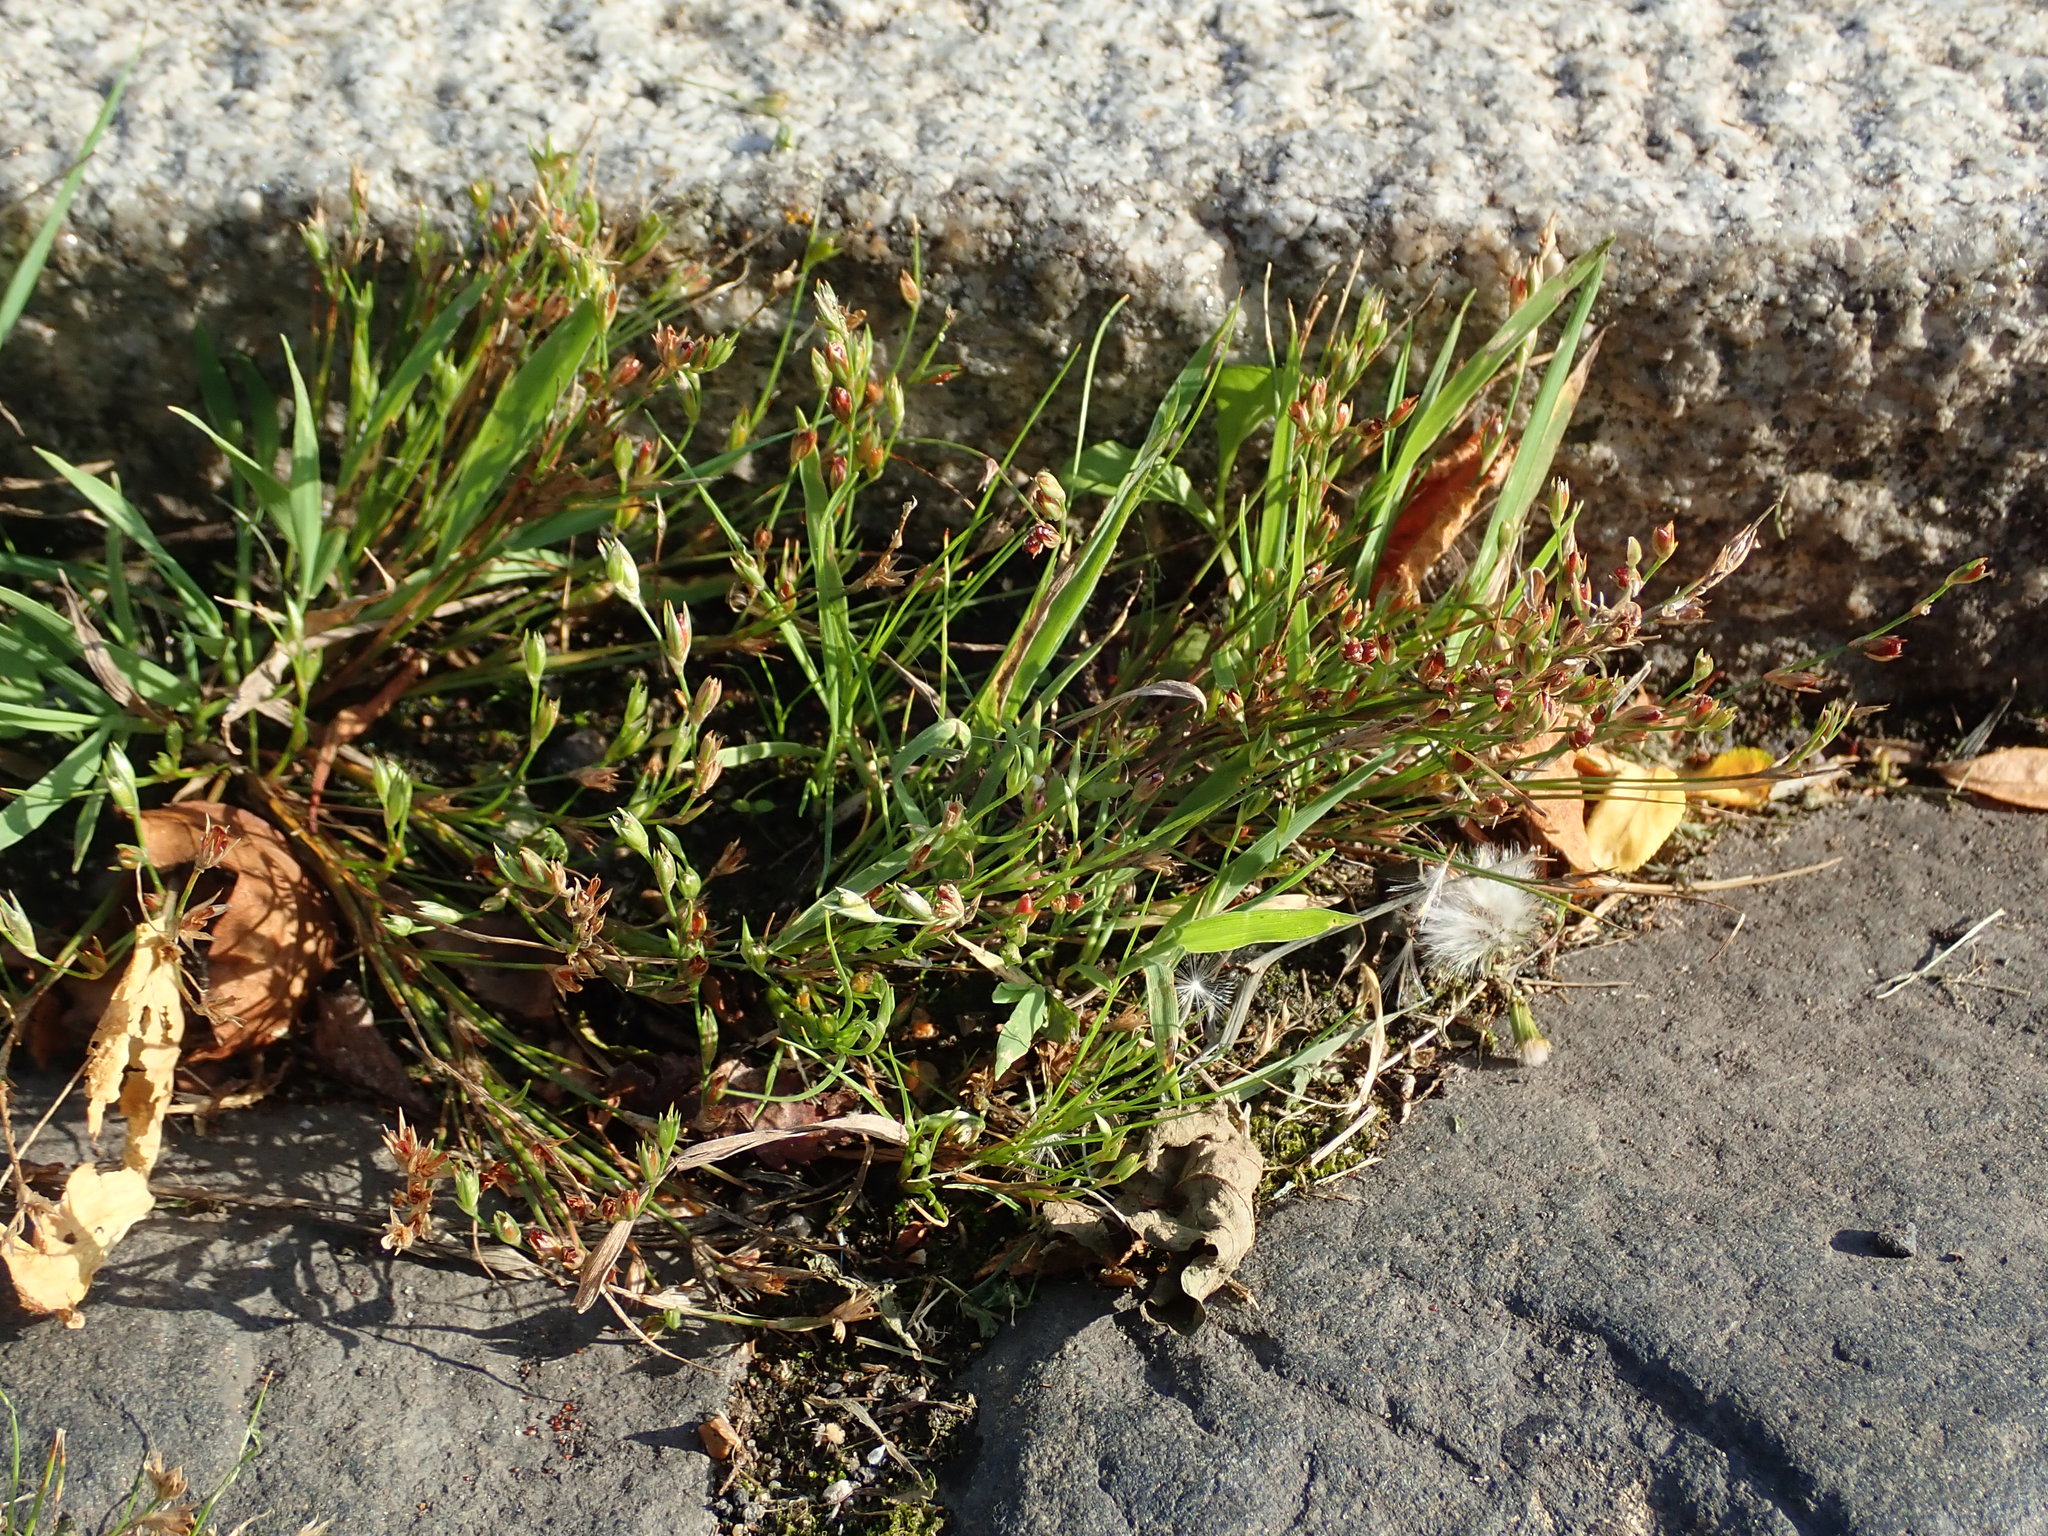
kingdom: Plantae
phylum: Tracheophyta
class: Liliopsida
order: Poales
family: Juncaceae
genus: Juncus
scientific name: Juncus bufonius
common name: Toad rush
